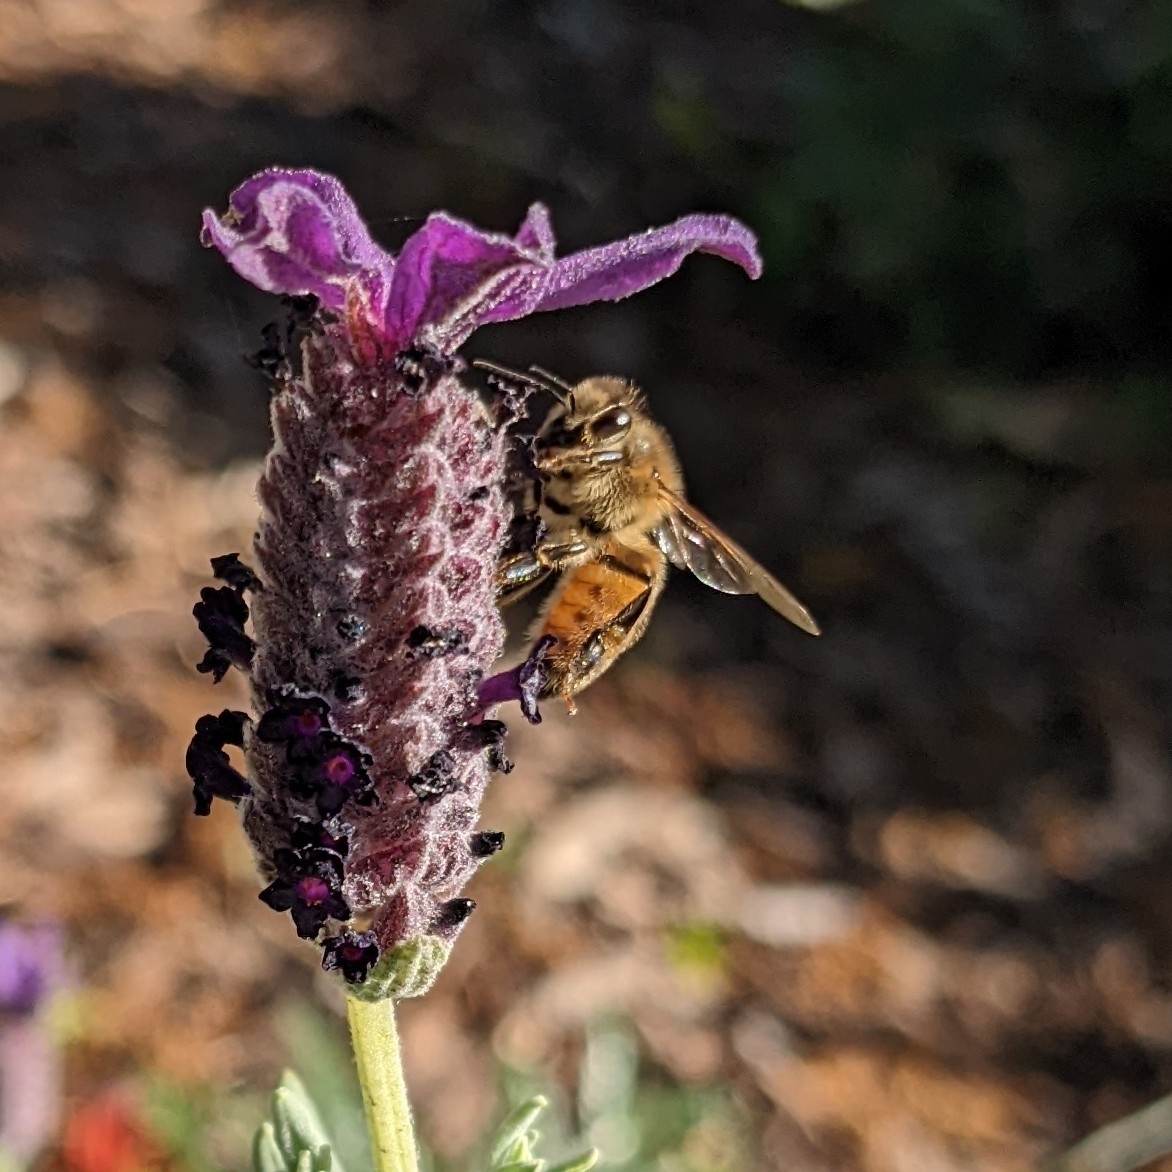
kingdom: Animalia
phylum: Arthropoda
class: Insecta
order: Hymenoptera
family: Apidae
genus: Apis
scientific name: Apis mellifera
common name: Honey bee
